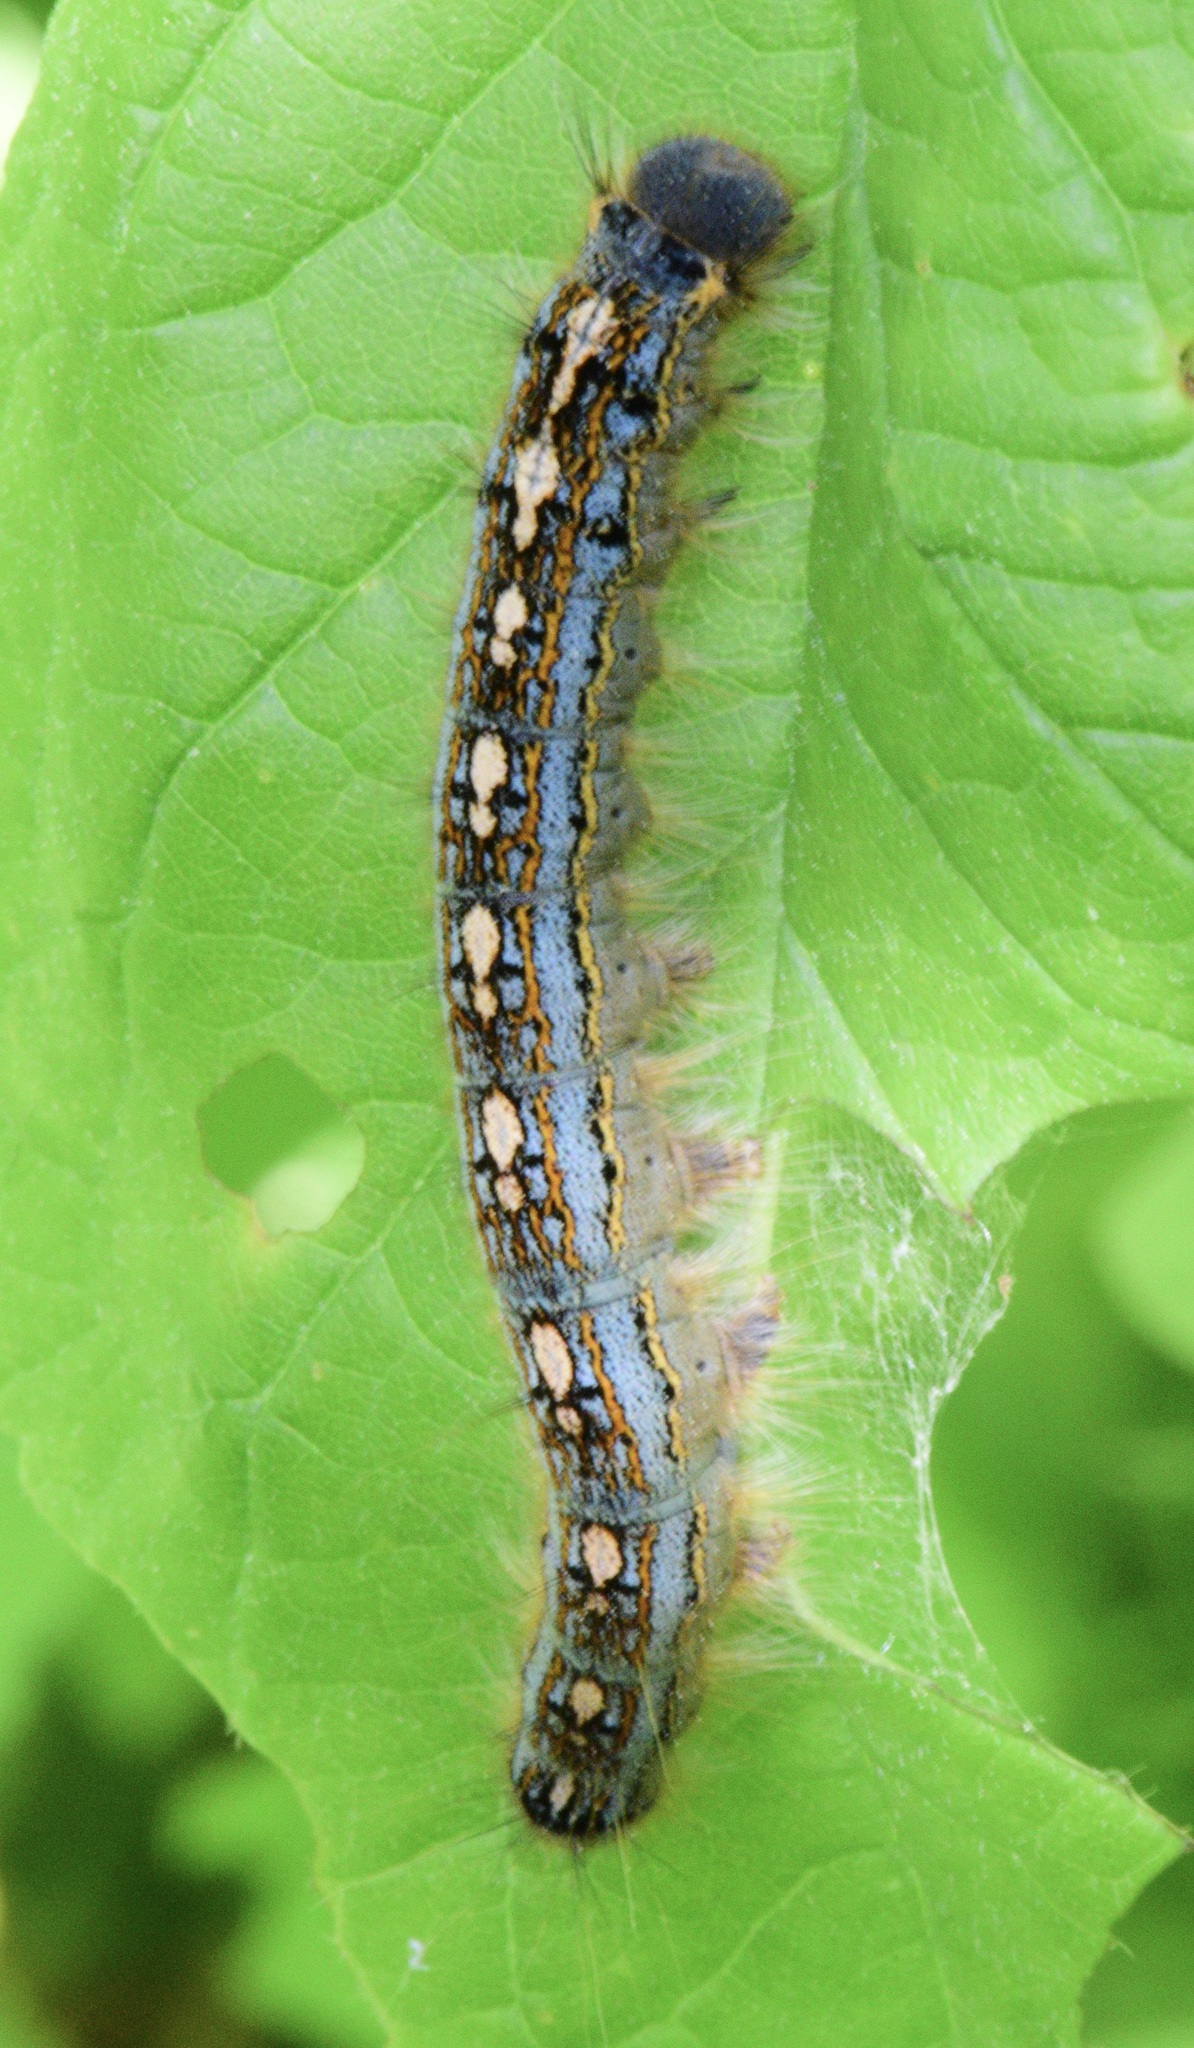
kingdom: Animalia
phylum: Arthropoda
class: Insecta
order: Lepidoptera
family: Lasiocampidae
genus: Malacosoma
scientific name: Malacosoma disstria
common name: Forest tent caterpillar
